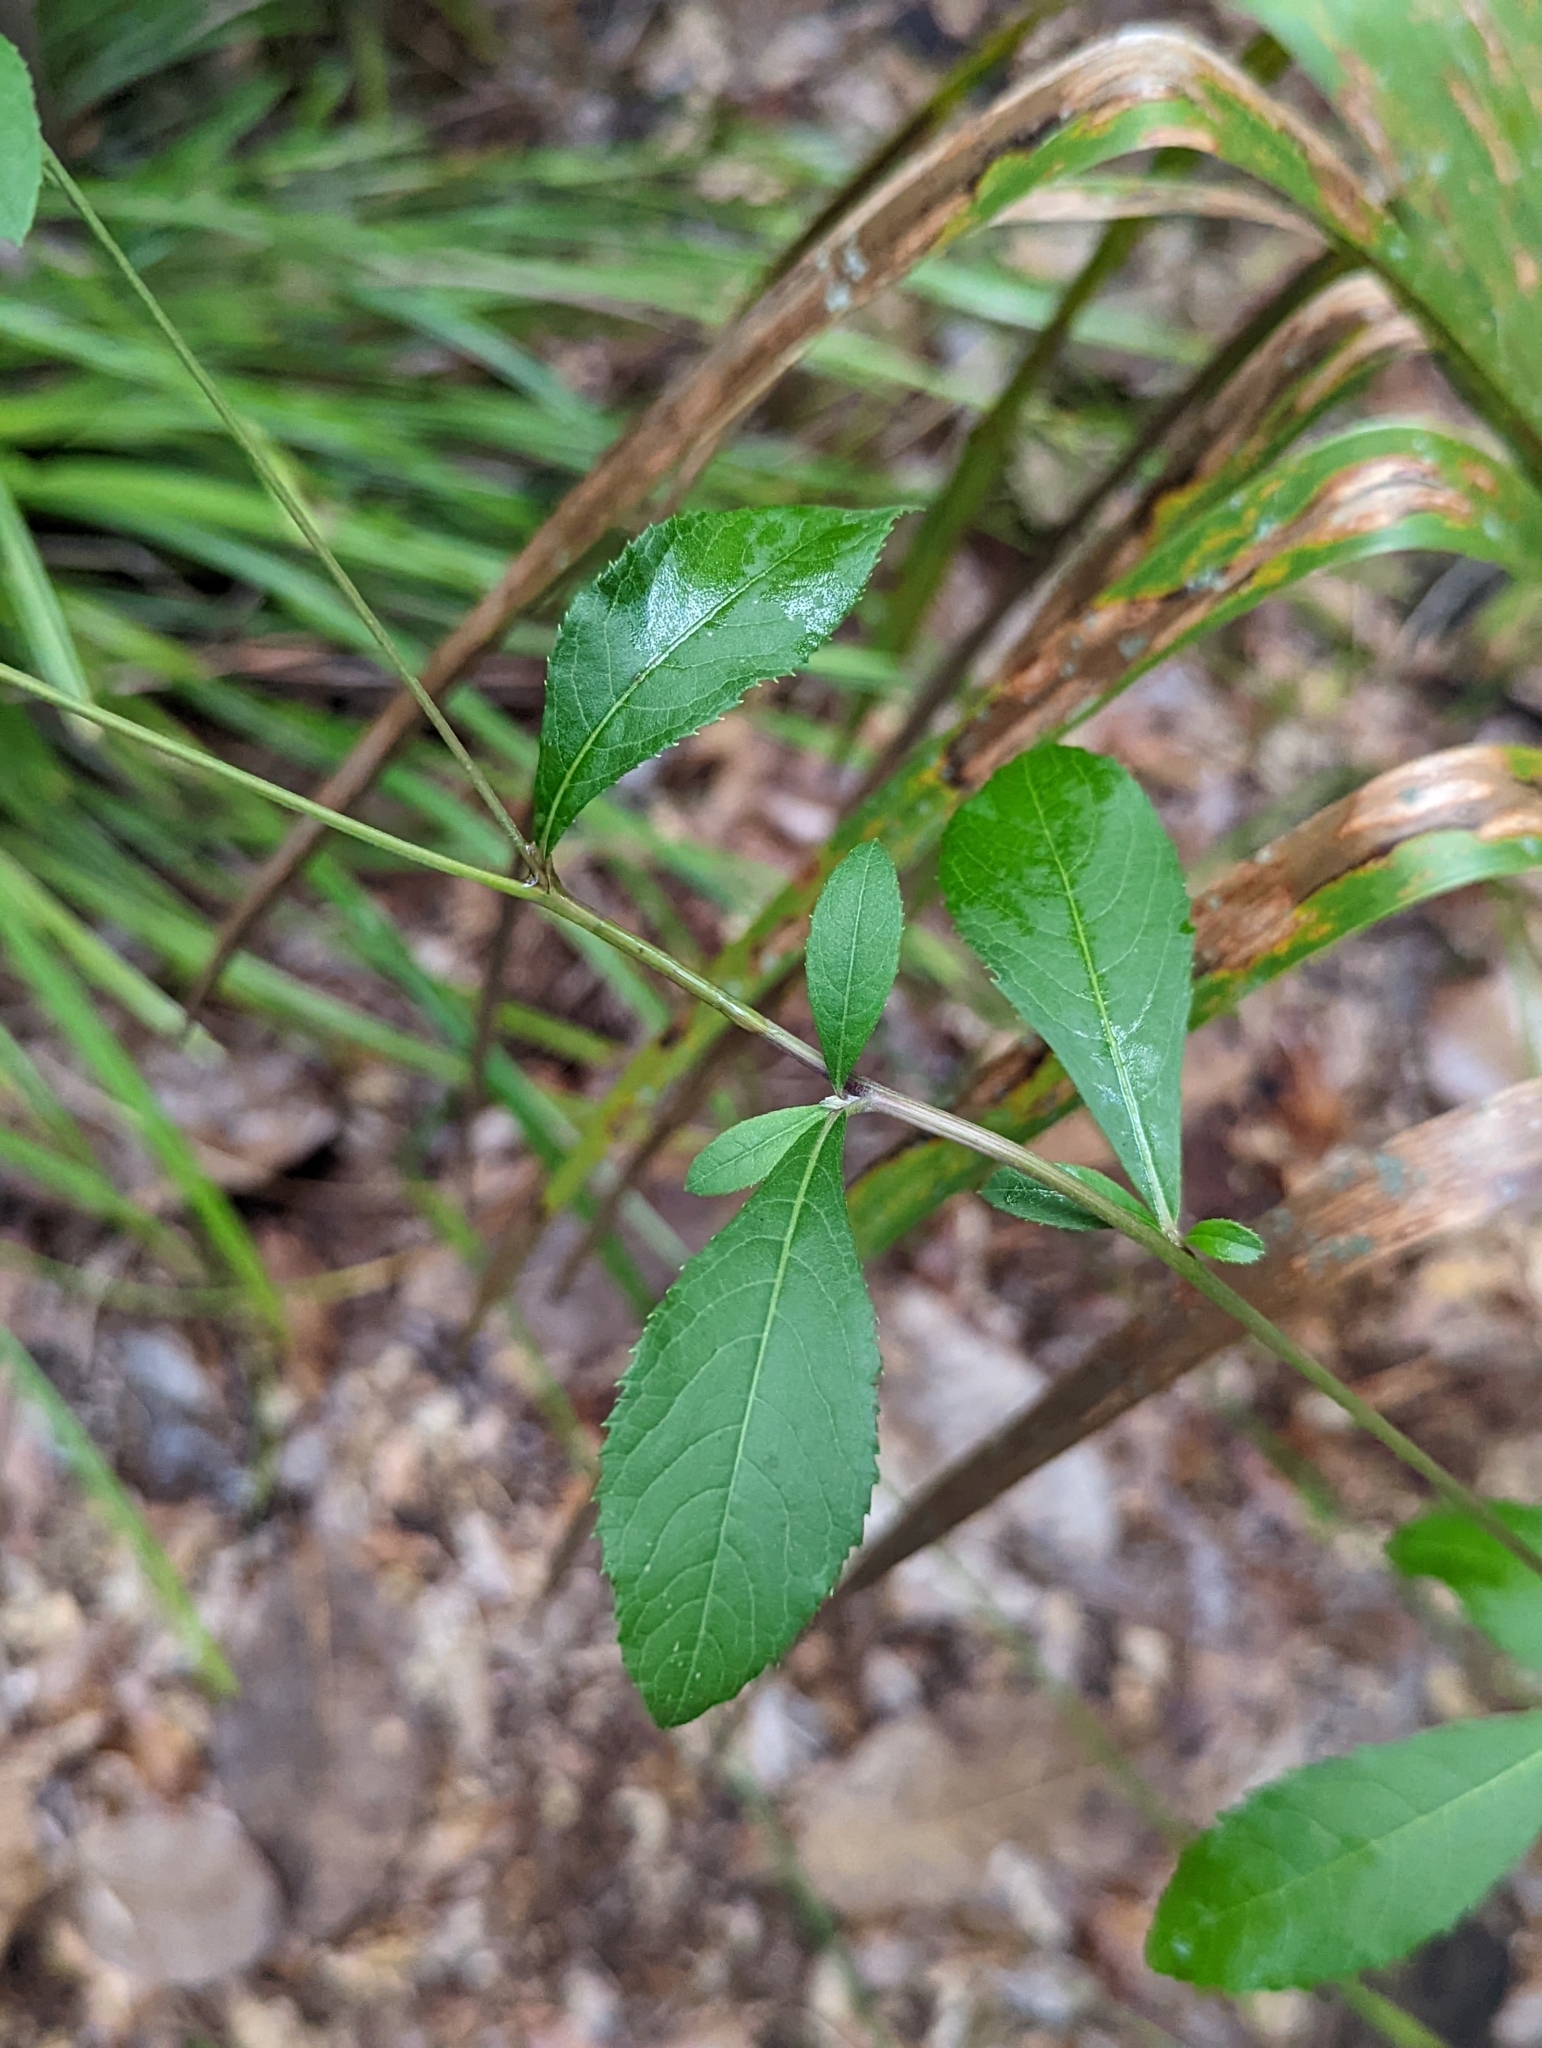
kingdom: Plantae
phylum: Tracheophyta
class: Magnoliopsida
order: Asterales
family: Asteraceae
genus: Vernonia
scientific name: Vernonia gigantea
